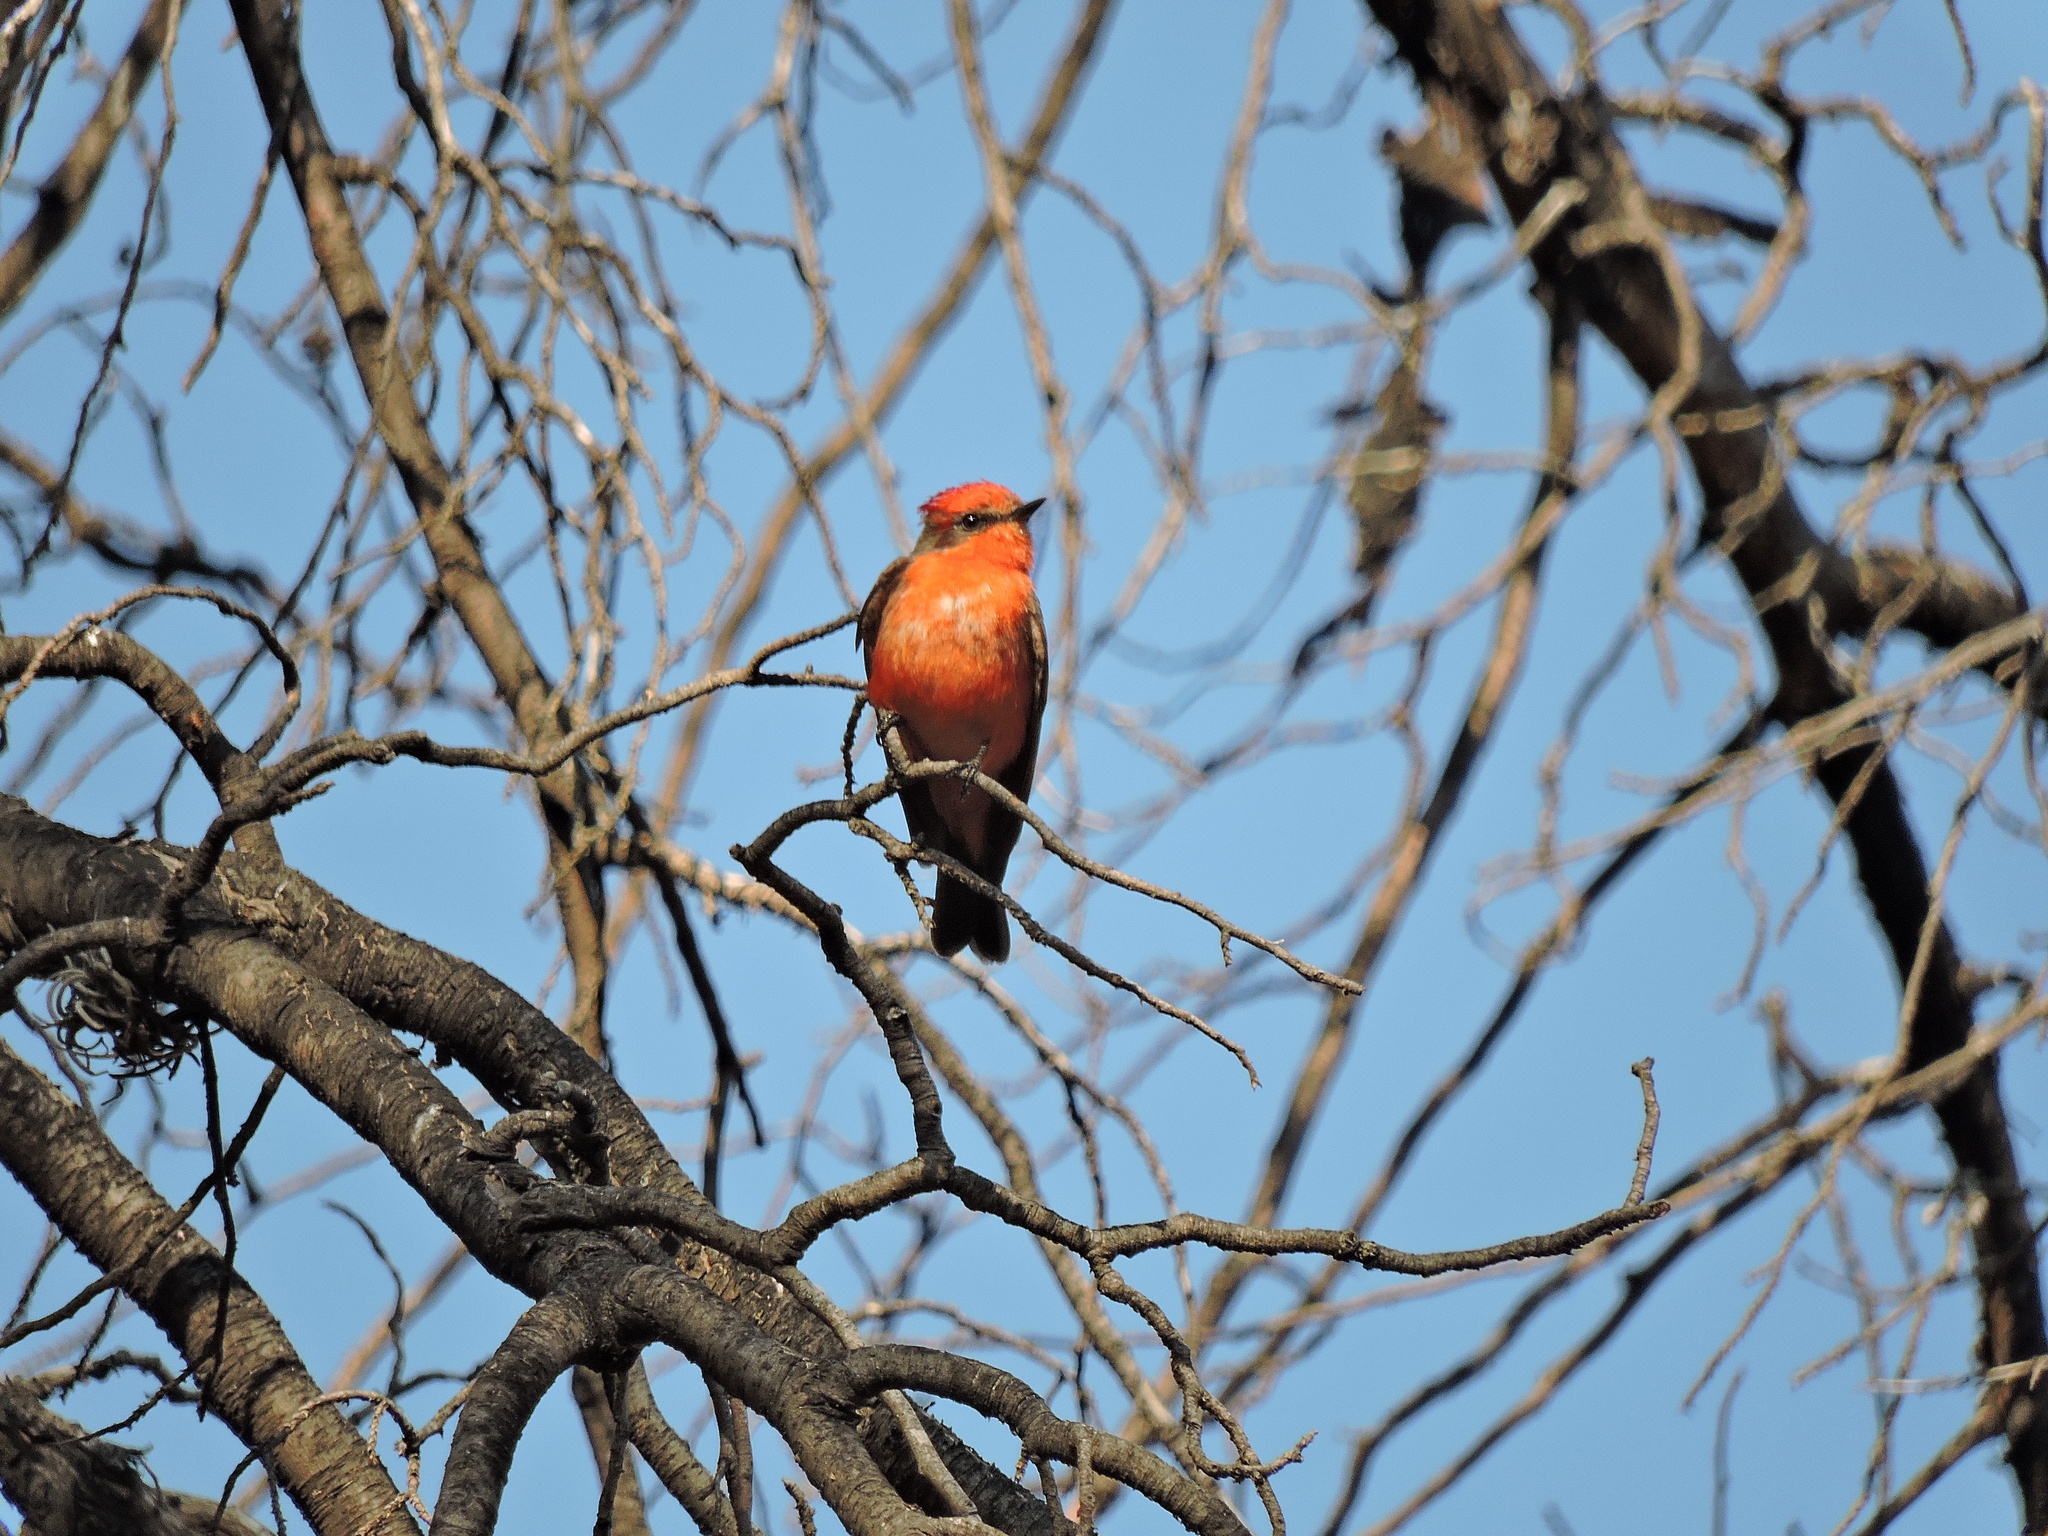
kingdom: Animalia
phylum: Chordata
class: Aves
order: Passeriformes
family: Tyrannidae
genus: Pyrocephalus
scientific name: Pyrocephalus rubinus
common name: Vermilion flycatcher
